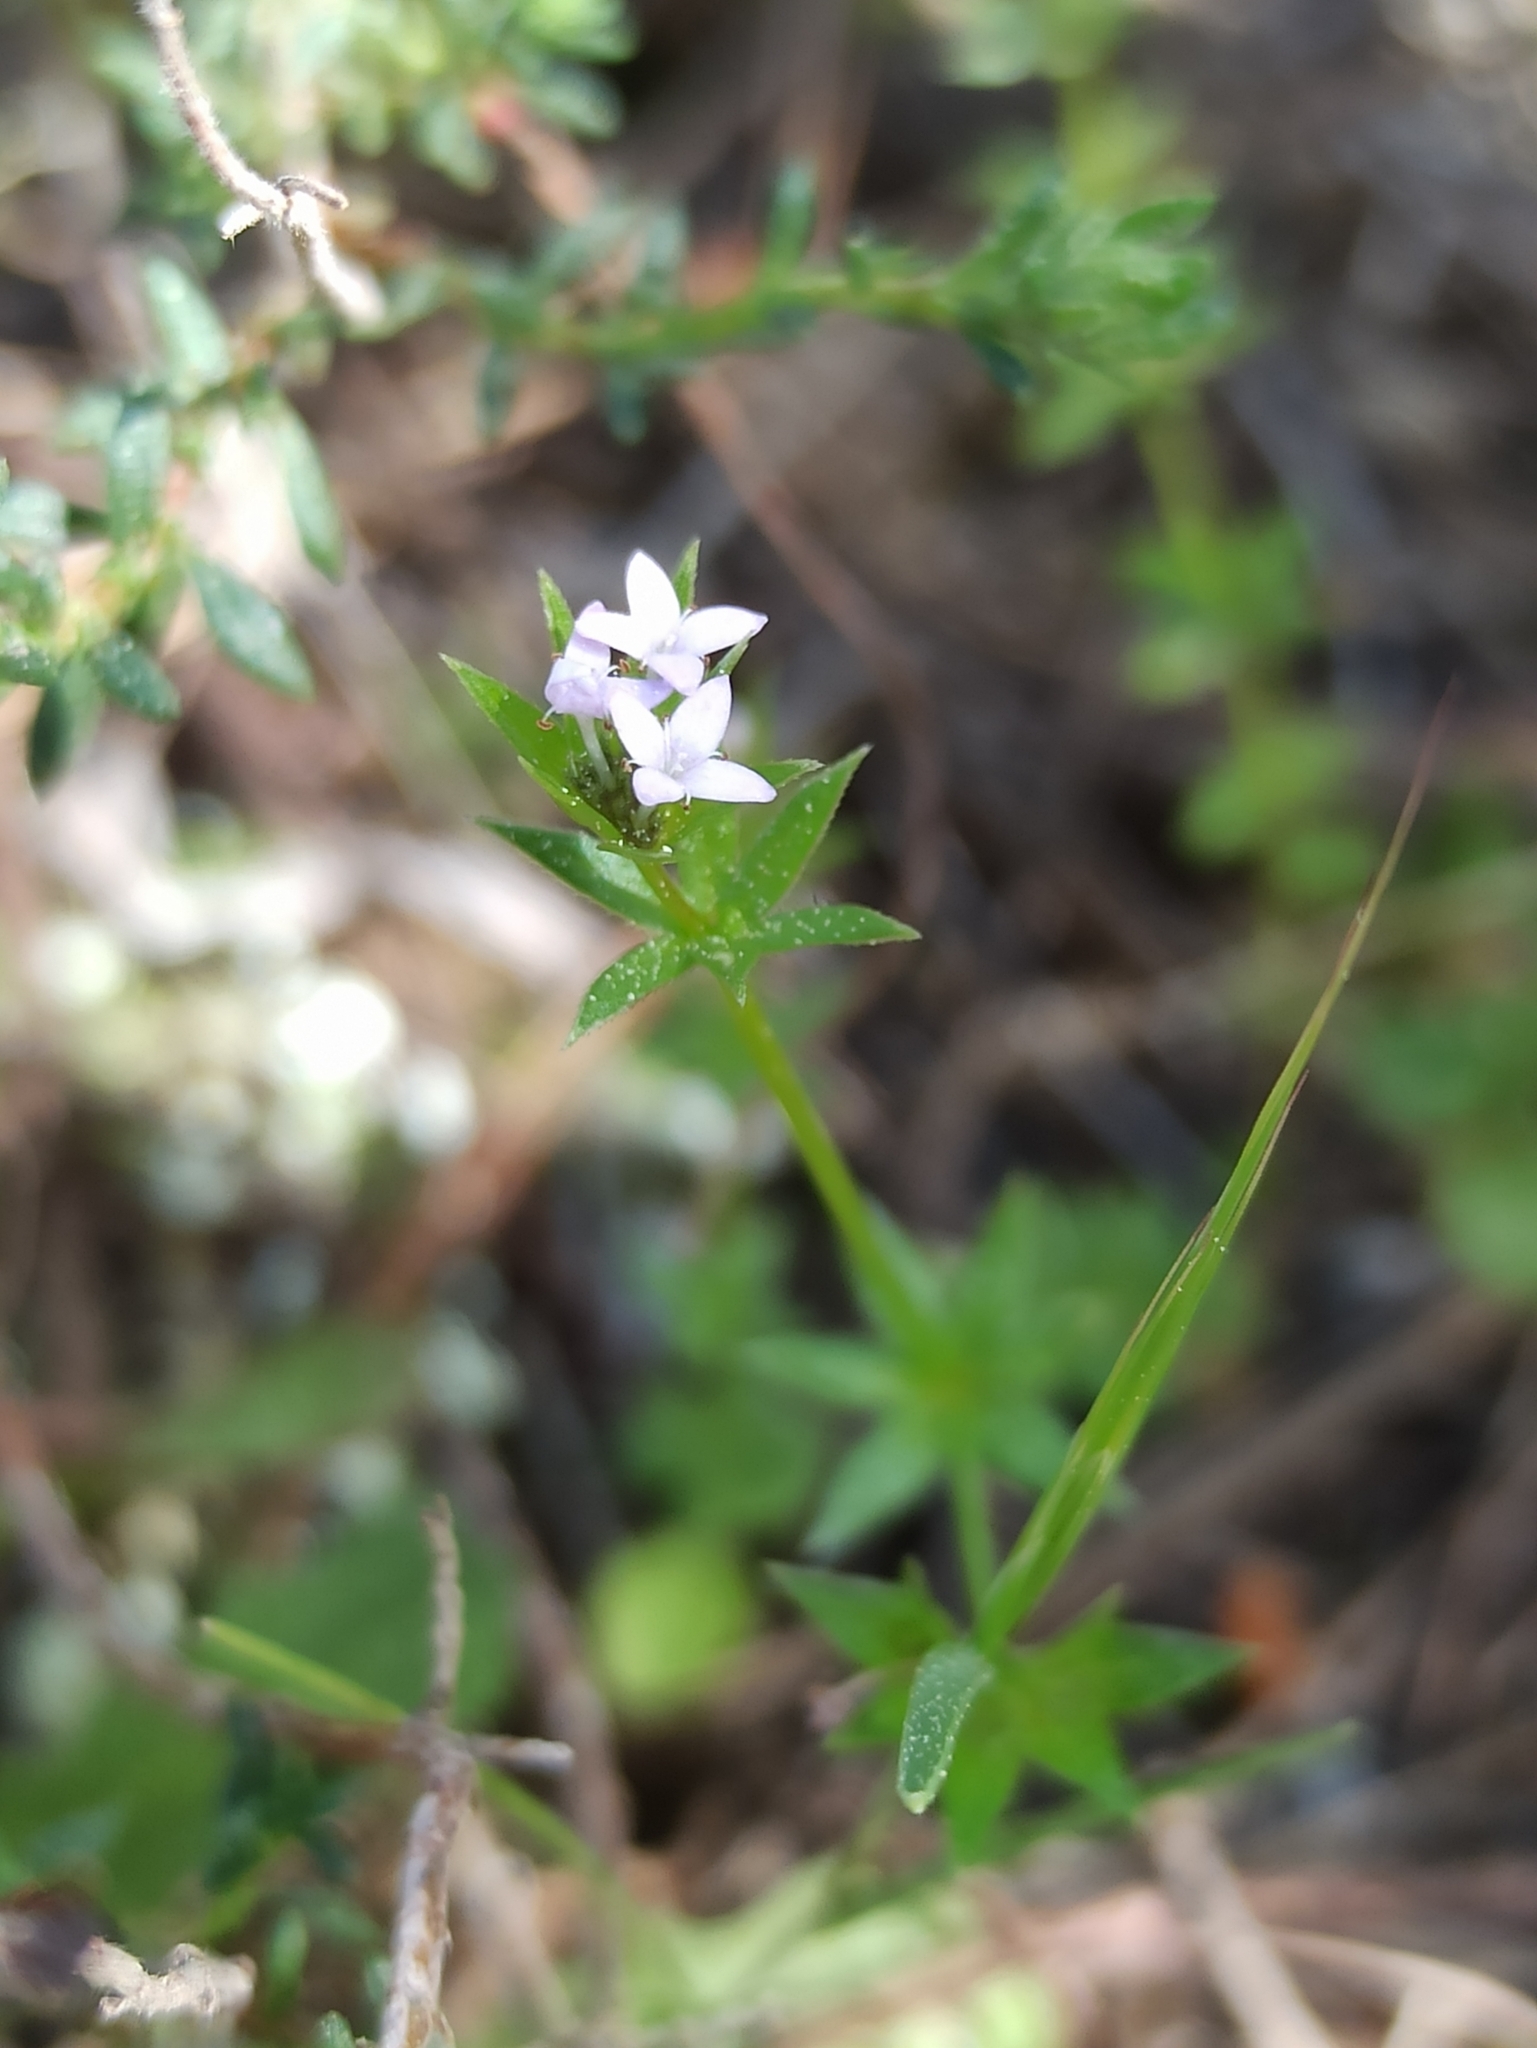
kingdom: Plantae
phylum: Tracheophyta
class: Magnoliopsida
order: Gentianales
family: Rubiaceae
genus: Sherardia
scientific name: Sherardia arvensis
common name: Field madder
